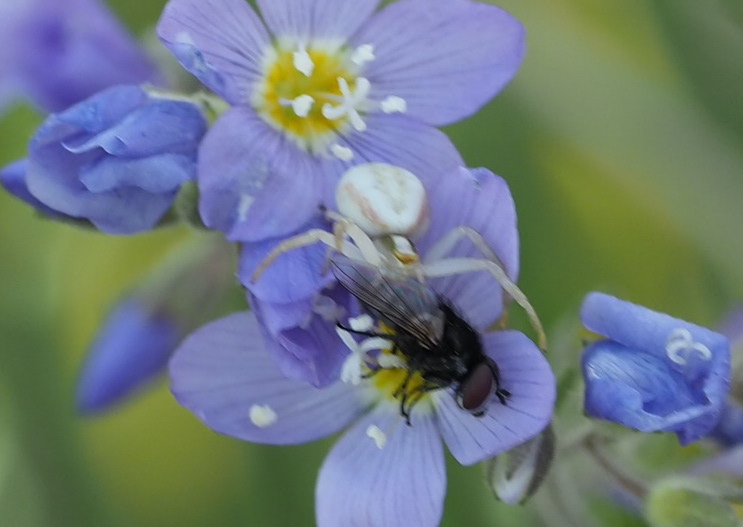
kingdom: Animalia
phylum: Arthropoda
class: Arachnida
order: Araneae
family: Thomisidae
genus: Misumena
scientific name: Misumena vatia
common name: Goldenrod crab spider
